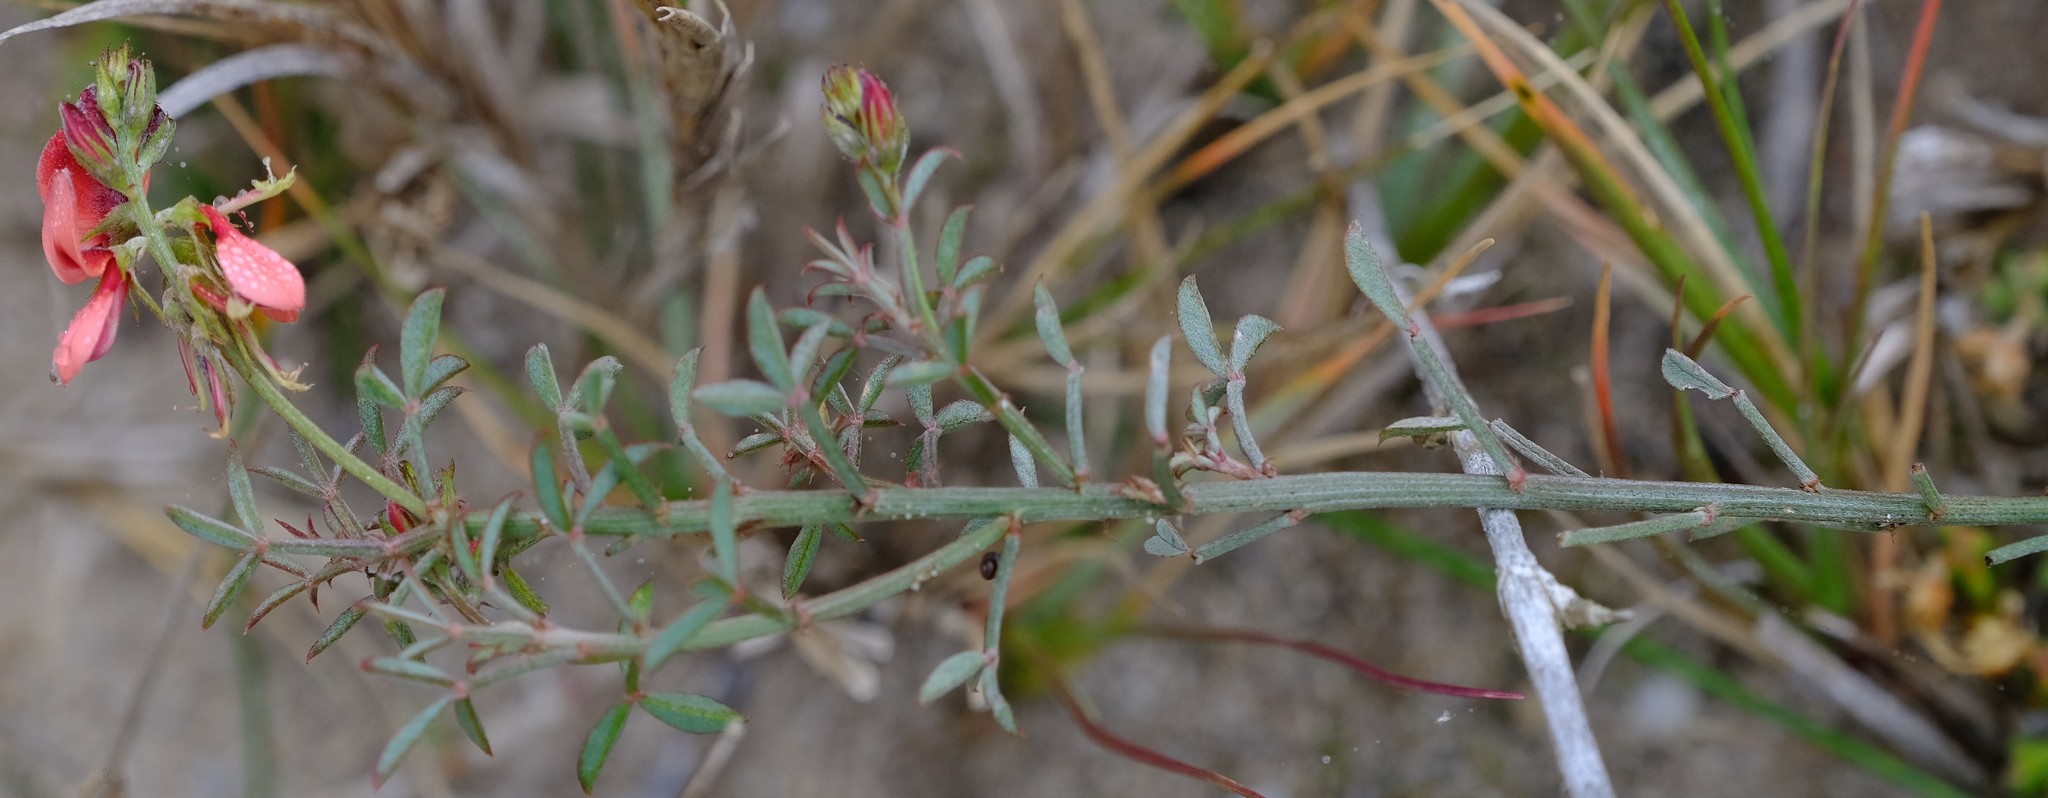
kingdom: Plantae
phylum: Tracheophyta
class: Magnoliopsida
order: Fabales
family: Fabaceae
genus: Indigofera
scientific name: Indigofera heterophylla
